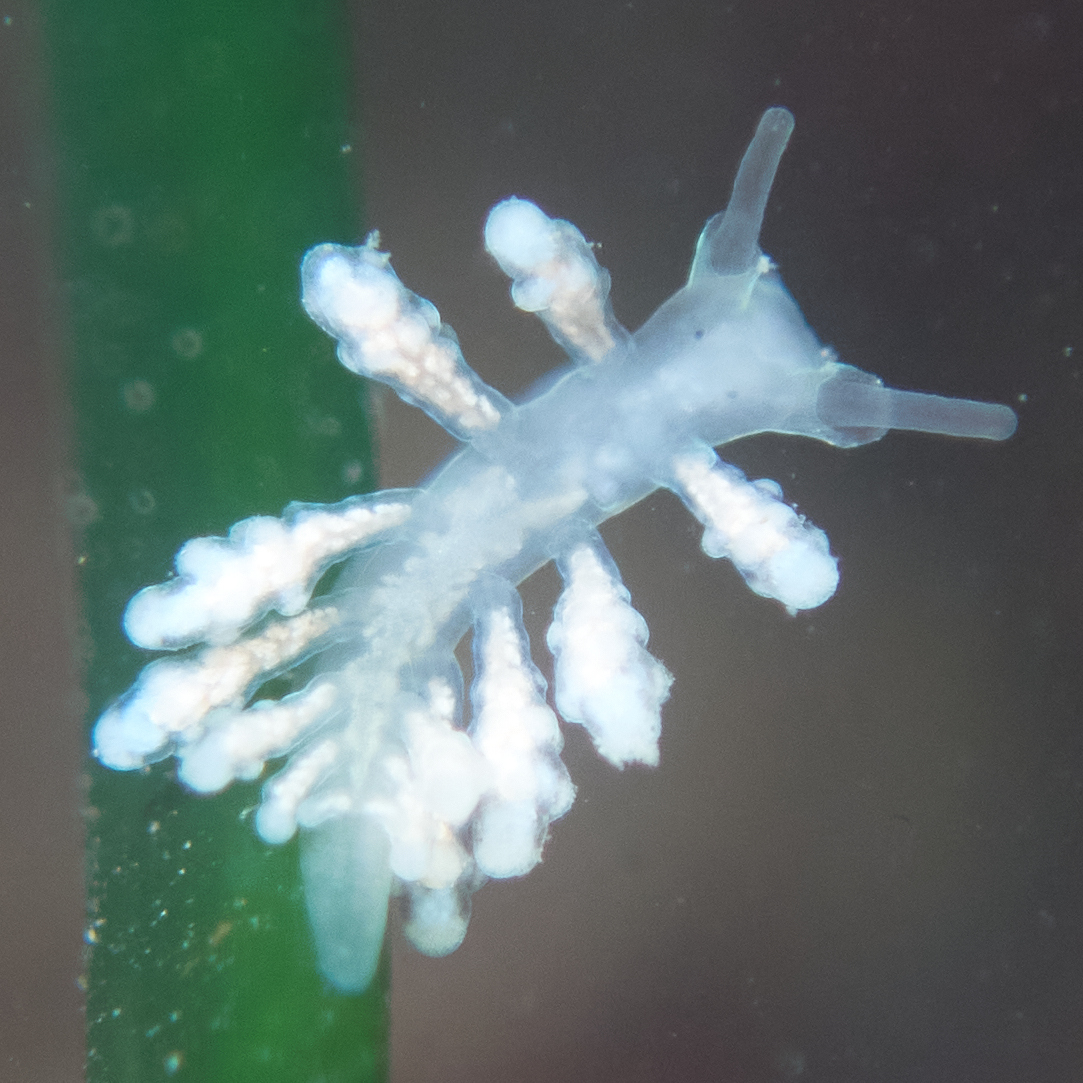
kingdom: Animalia
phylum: Mollusca
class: Gastropoda
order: Nudibranchia
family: Dotidae
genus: Doto
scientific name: Doto amyra
